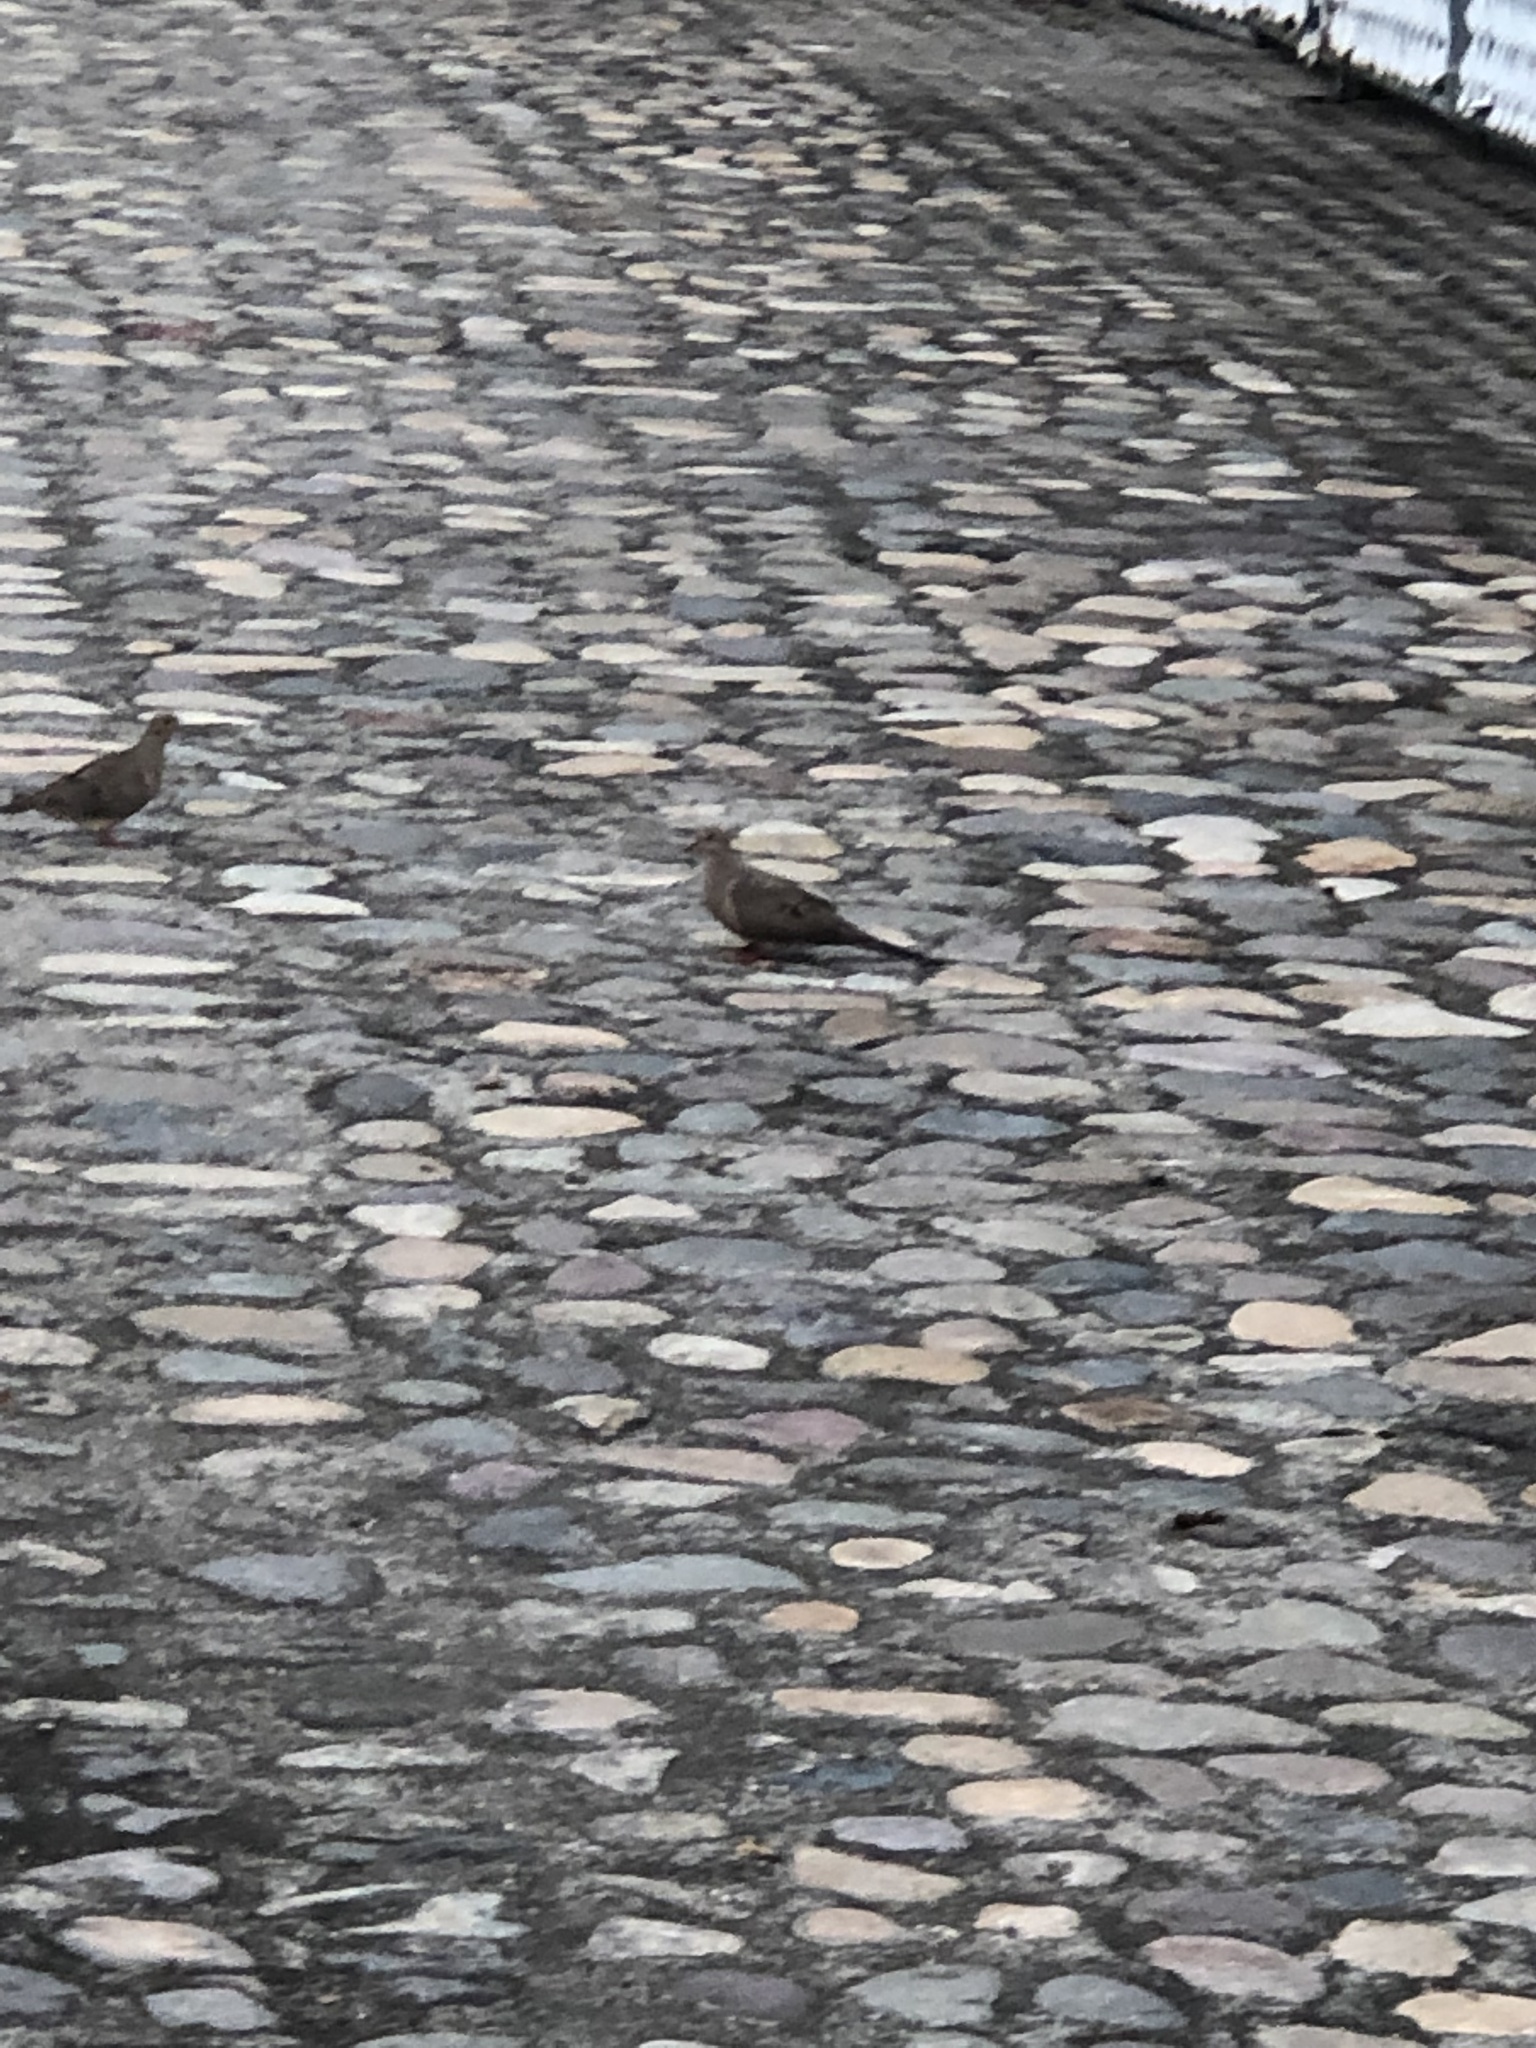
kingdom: Animalia
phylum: Chordata
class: Aves
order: Columbiformes
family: Columbidae
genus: Zenaida
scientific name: Zenaida macroura
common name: Mourning dove
